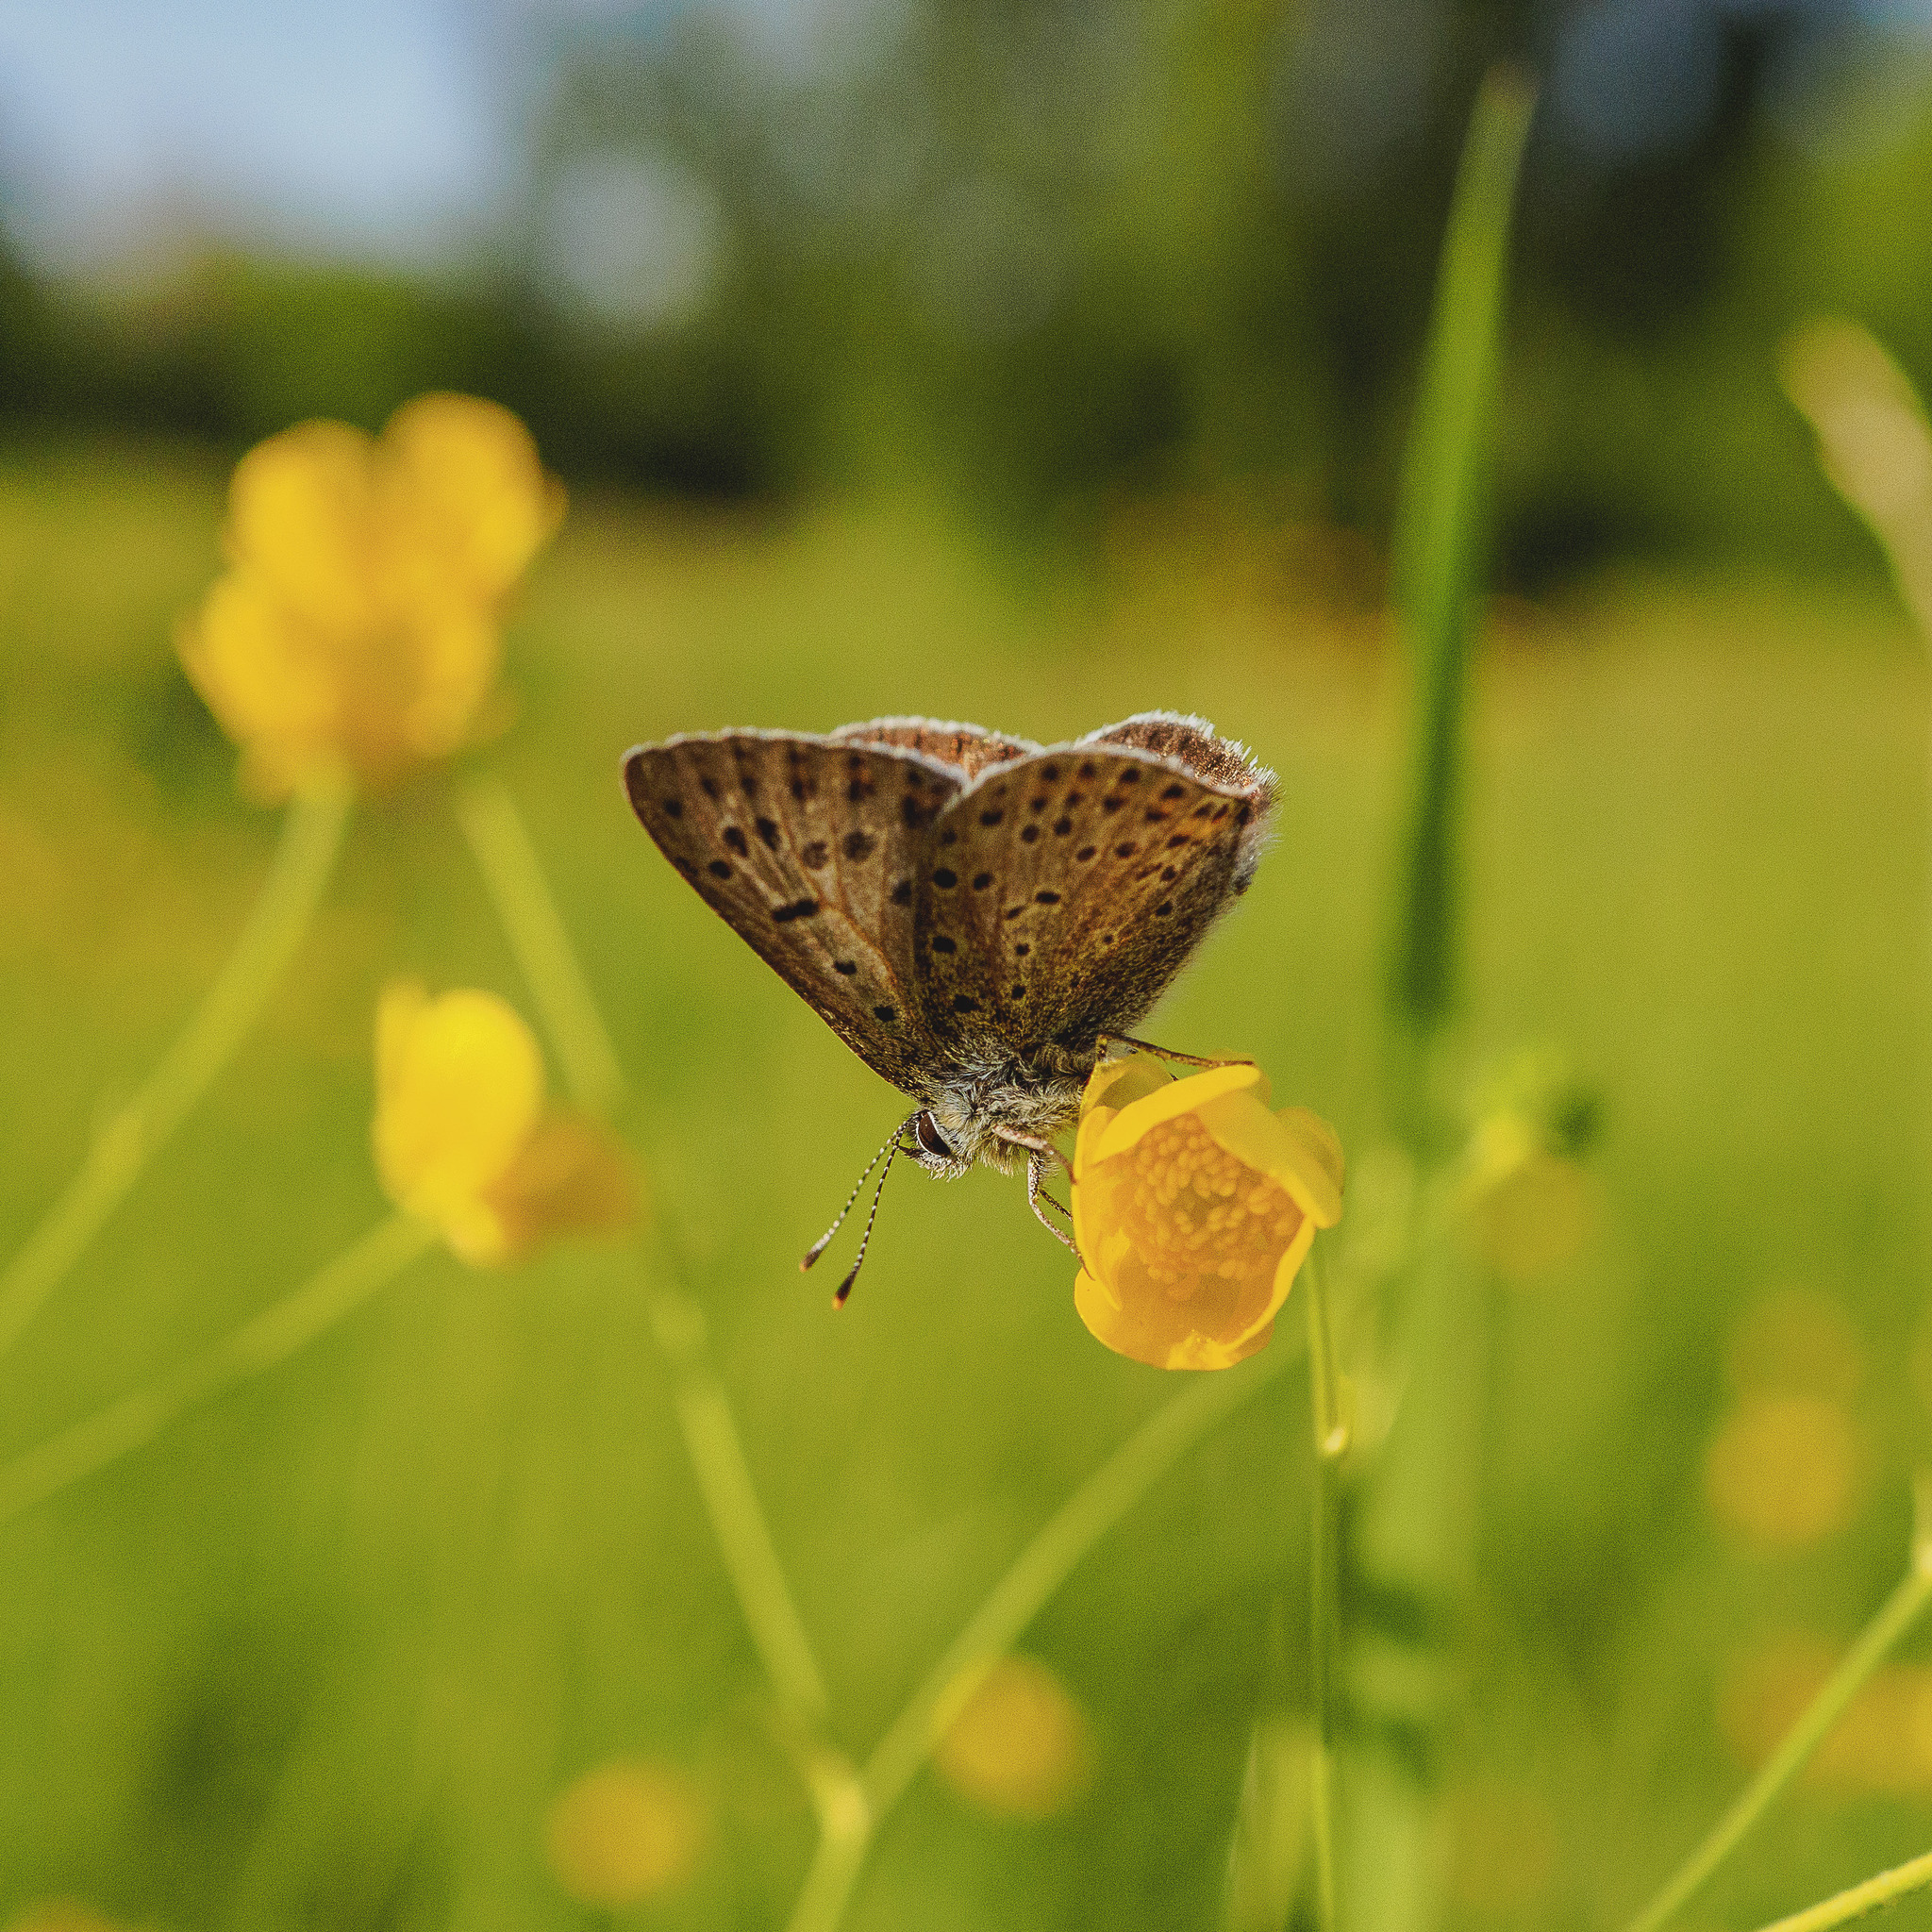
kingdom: Animalia
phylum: Arthropoda
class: Insecta
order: Lepidoptera
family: Lycaenidae
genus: Loweia
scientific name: Loweia tityrus
